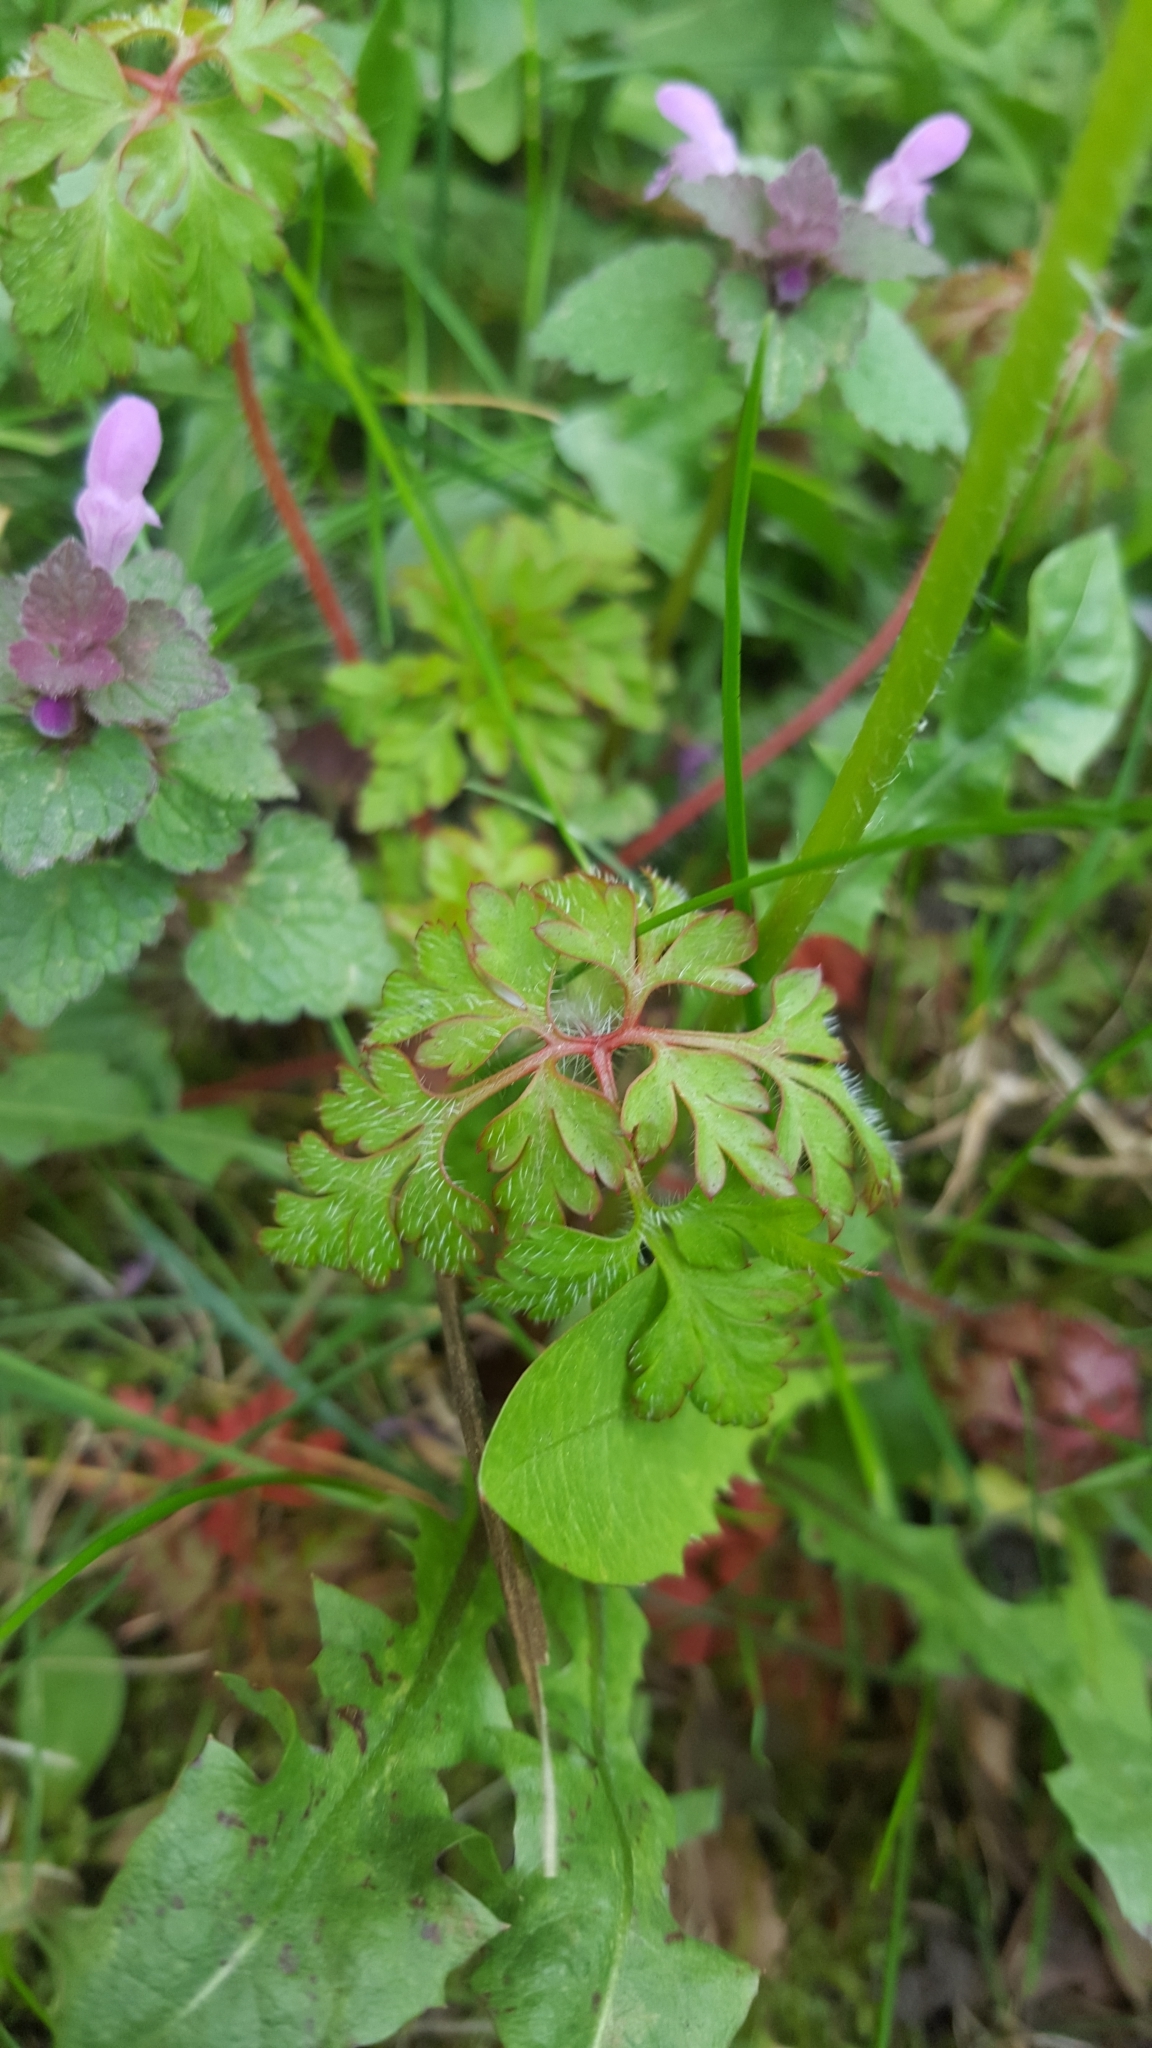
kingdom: Plantae
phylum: Tracheophyta
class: Magnoliopsida
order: Geraniales
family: Geraniaceae
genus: Geranium
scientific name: Geranium robertianum
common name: Herb-robert
